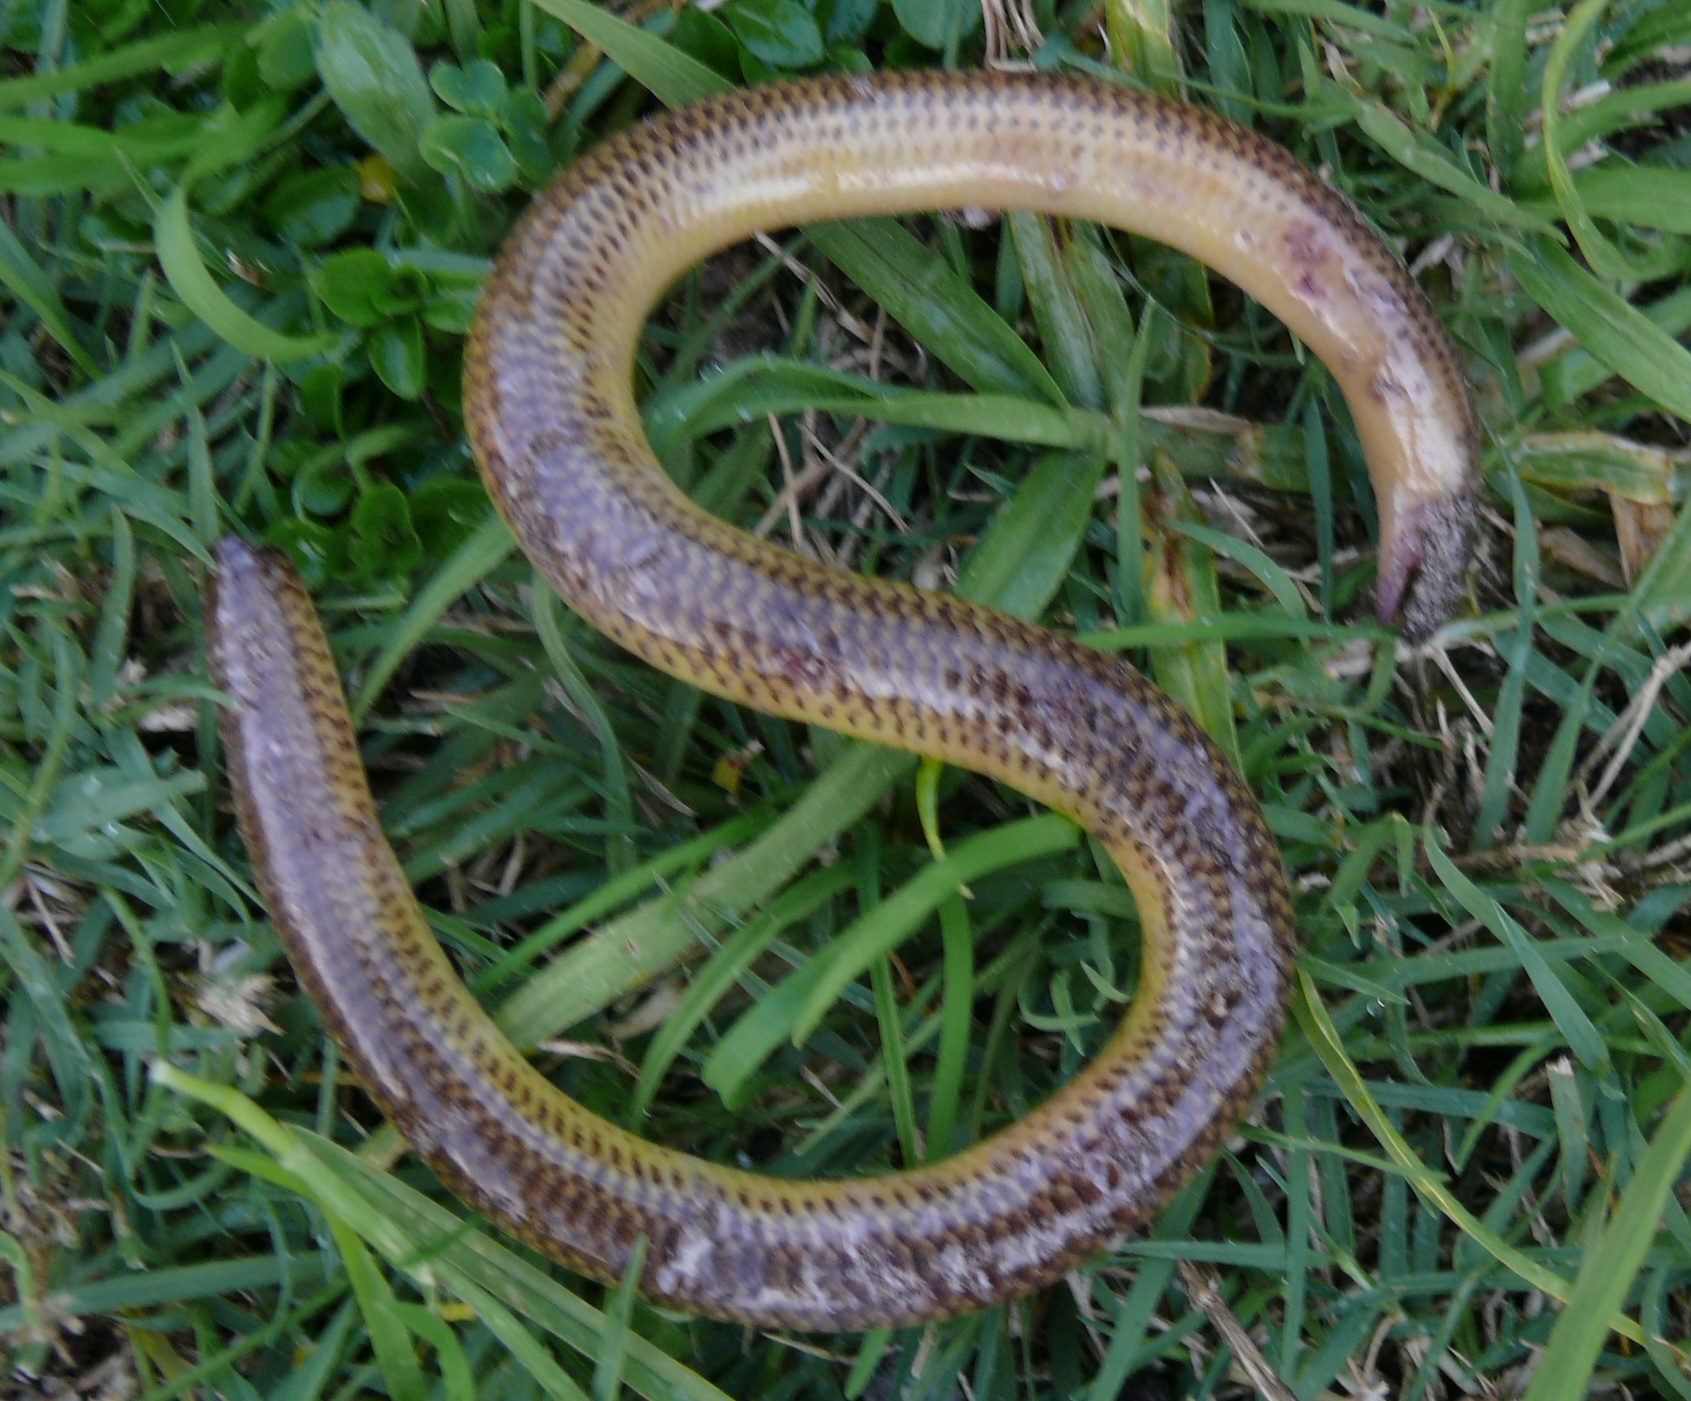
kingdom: Animalia
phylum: Chordata
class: Squamata
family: Scincidae
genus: Acontias
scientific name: Acontias meleagris
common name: Cape legless skink
